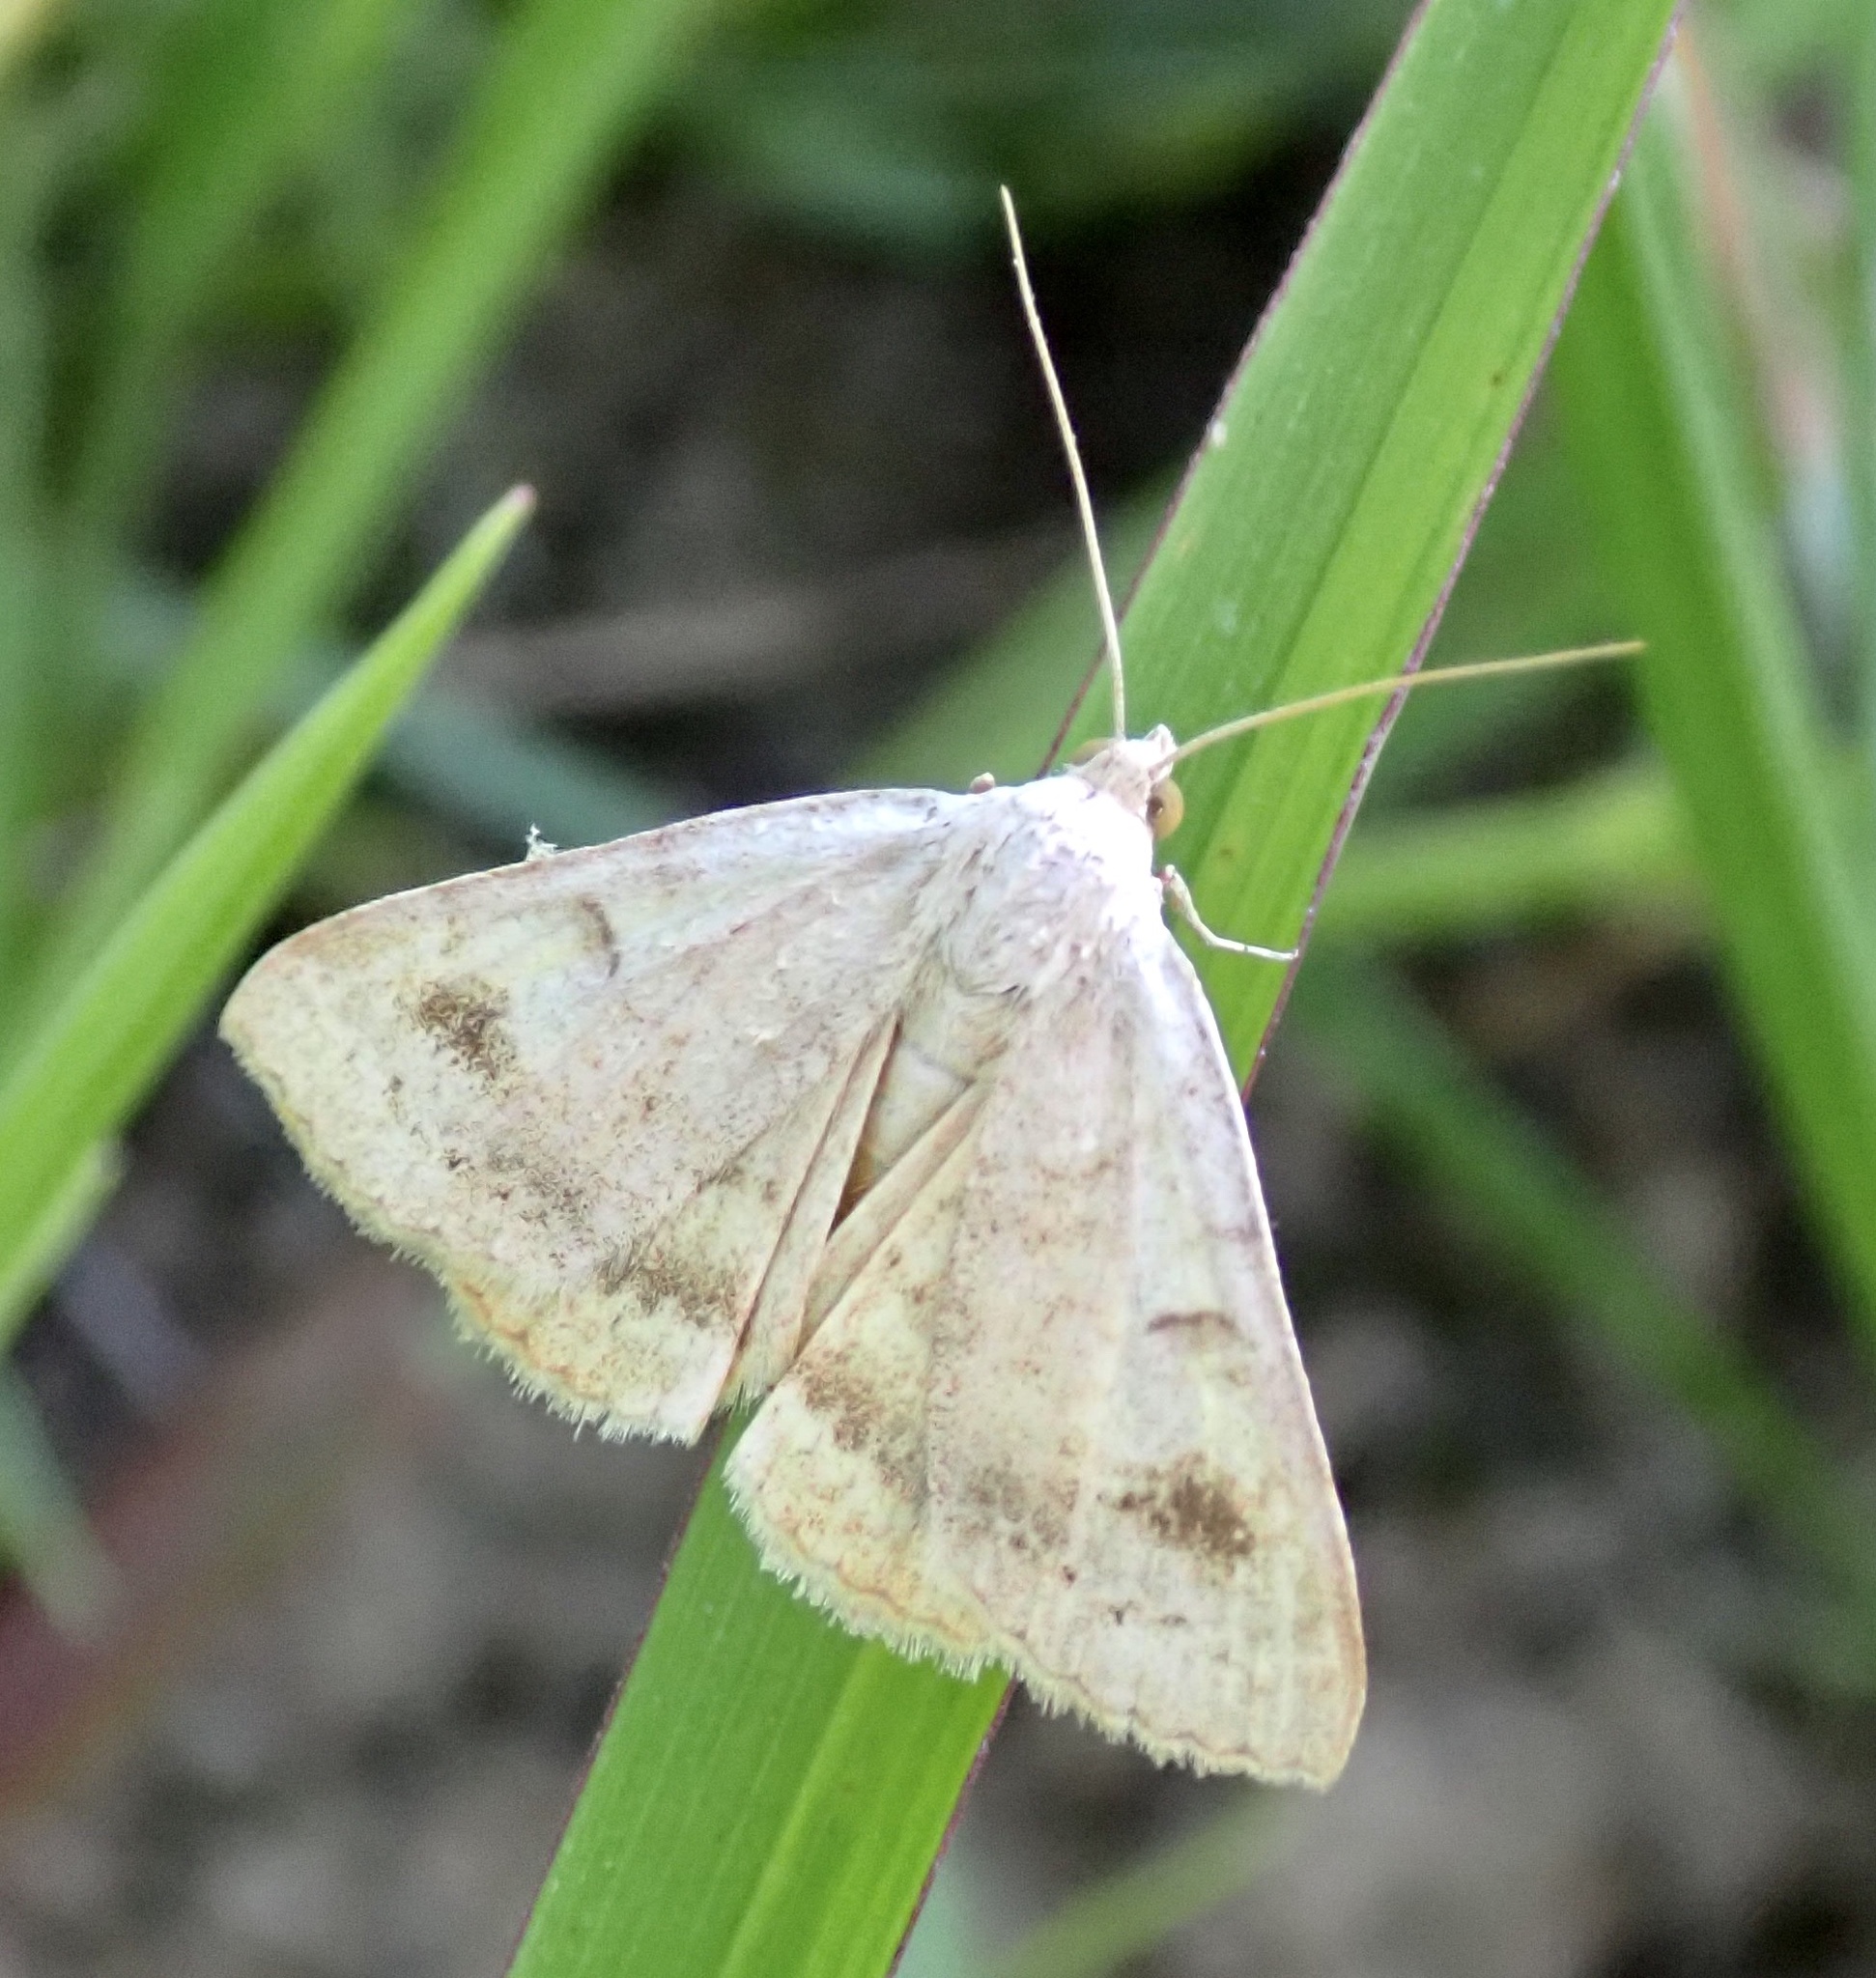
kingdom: Animalia
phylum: Arthropoda
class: Insecta
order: Lepidoptera
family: Erebidae
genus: Caenurgia
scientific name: Caenurgia chloropha
